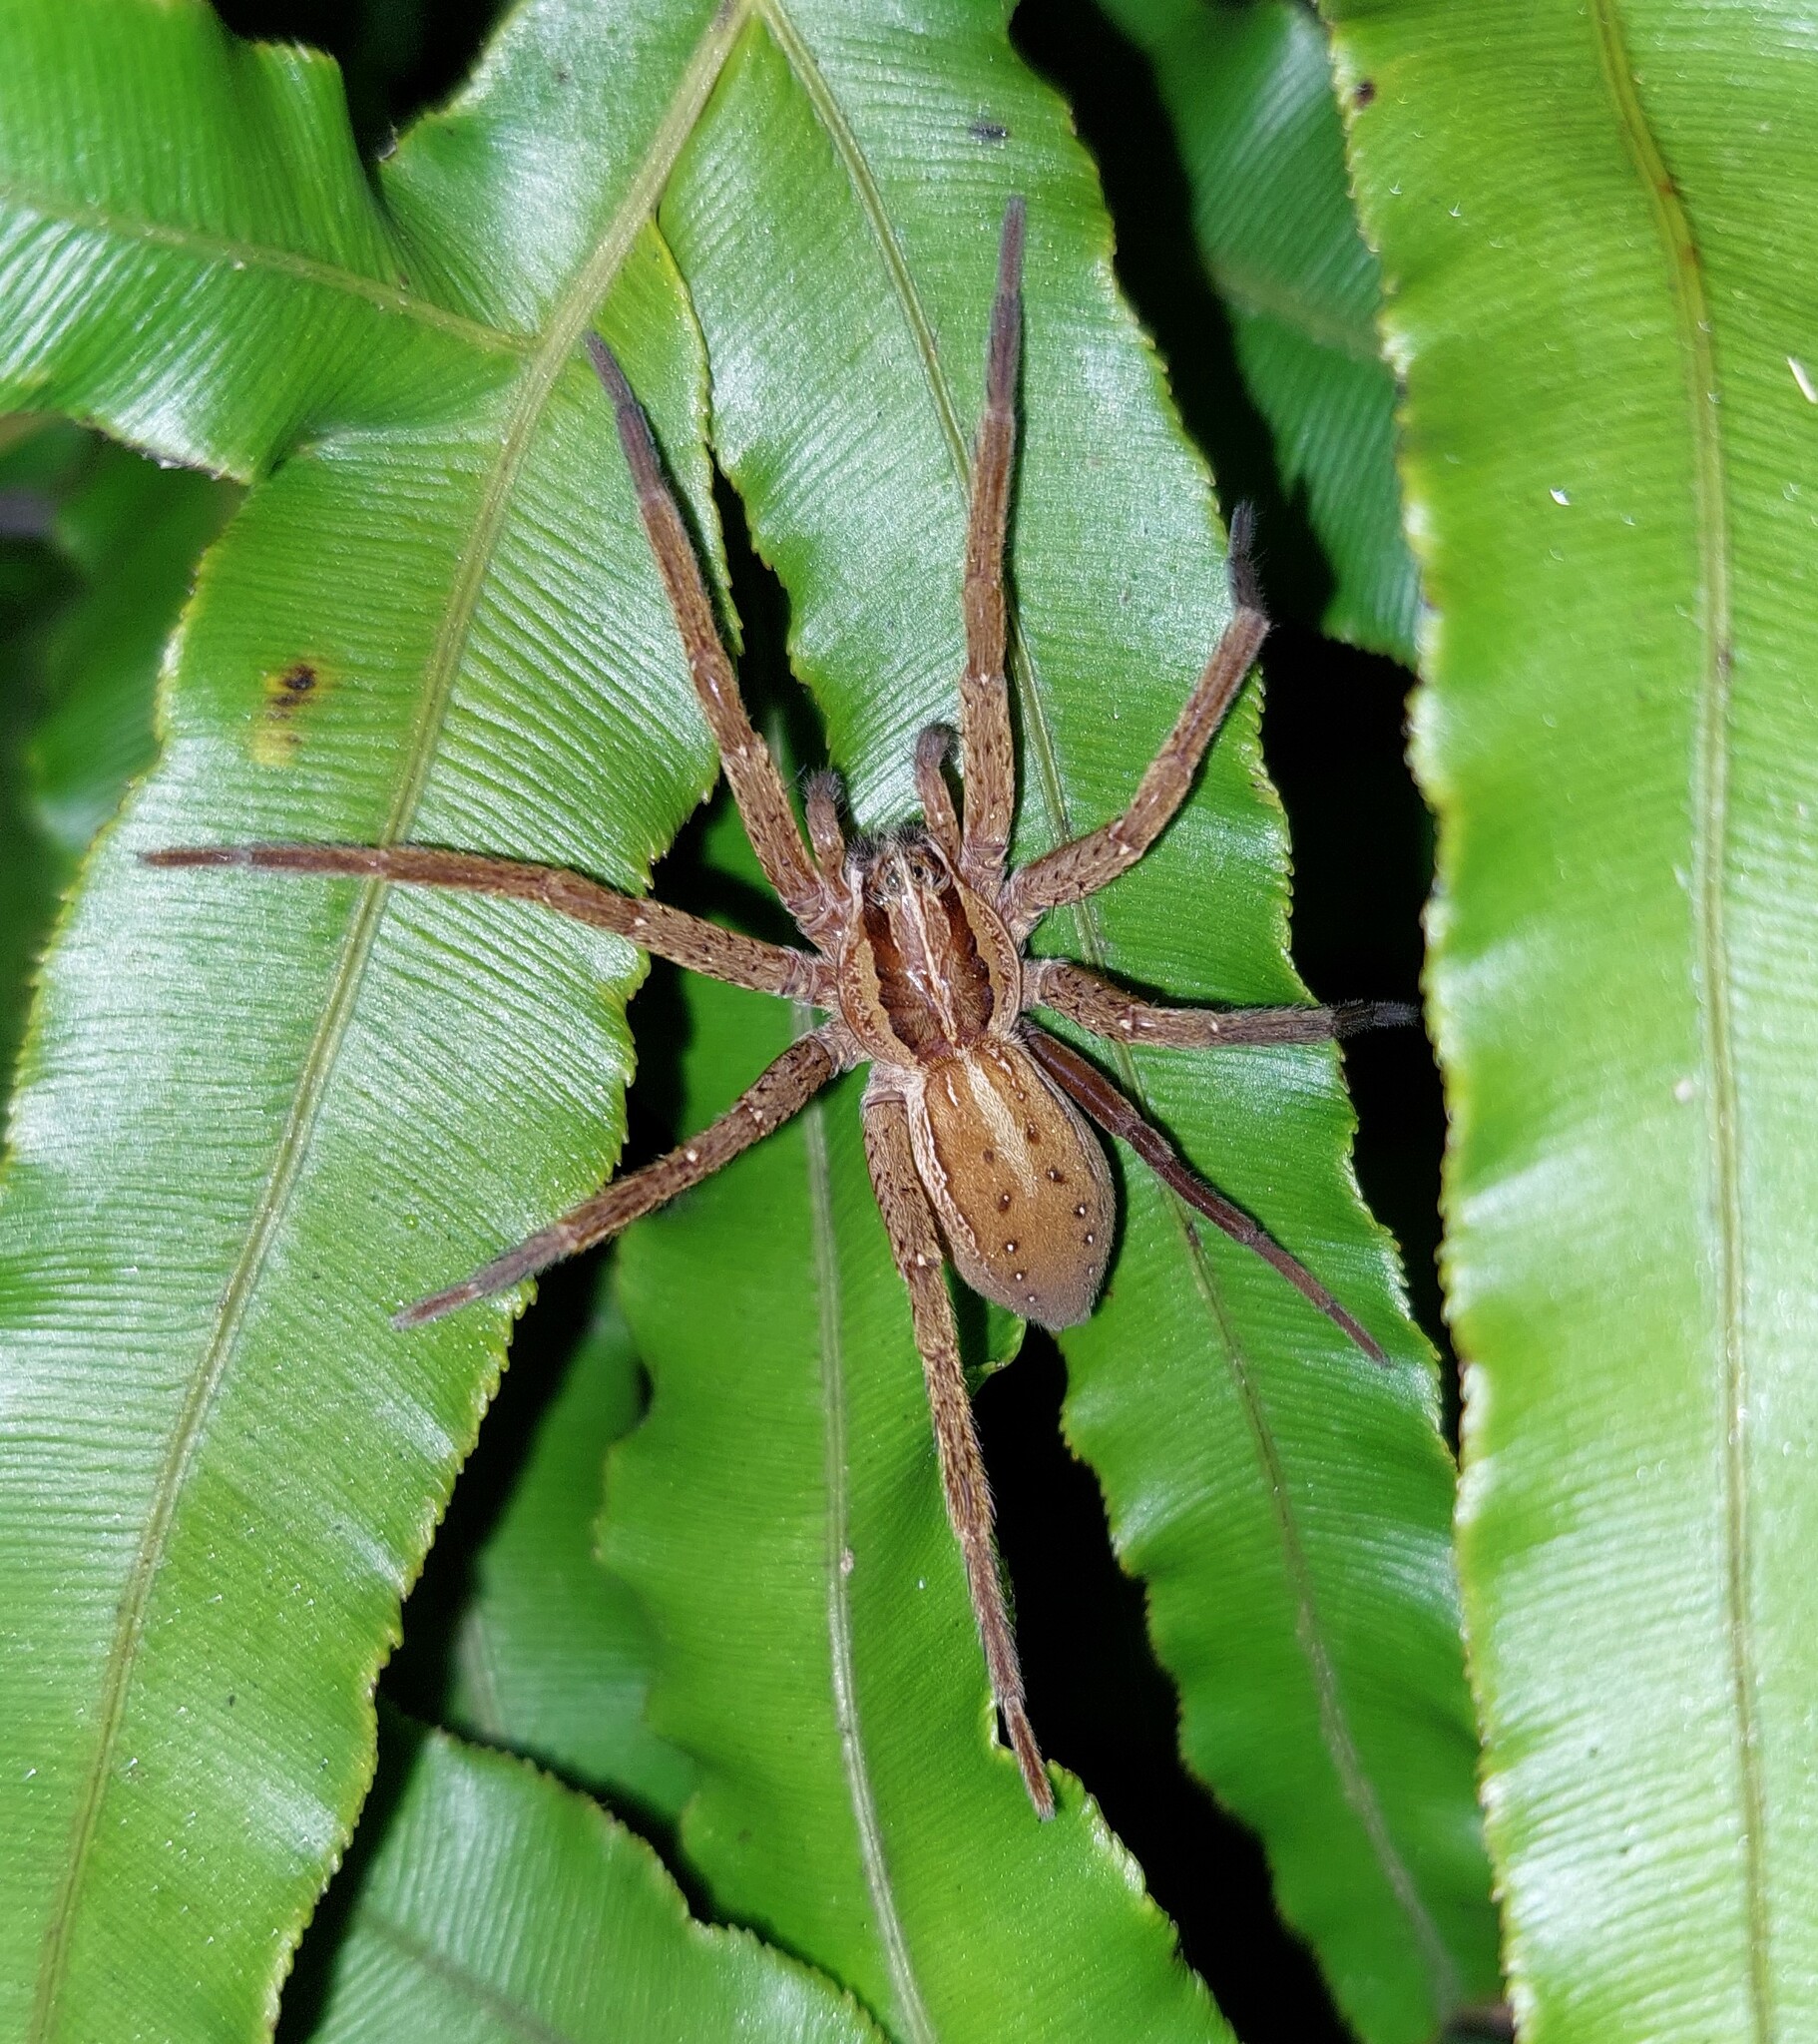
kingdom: Animalia
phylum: Arthropoda
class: Arachnida
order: Araneae
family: Pisauridae
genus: Dolomedes
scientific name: Dolomedes minor
